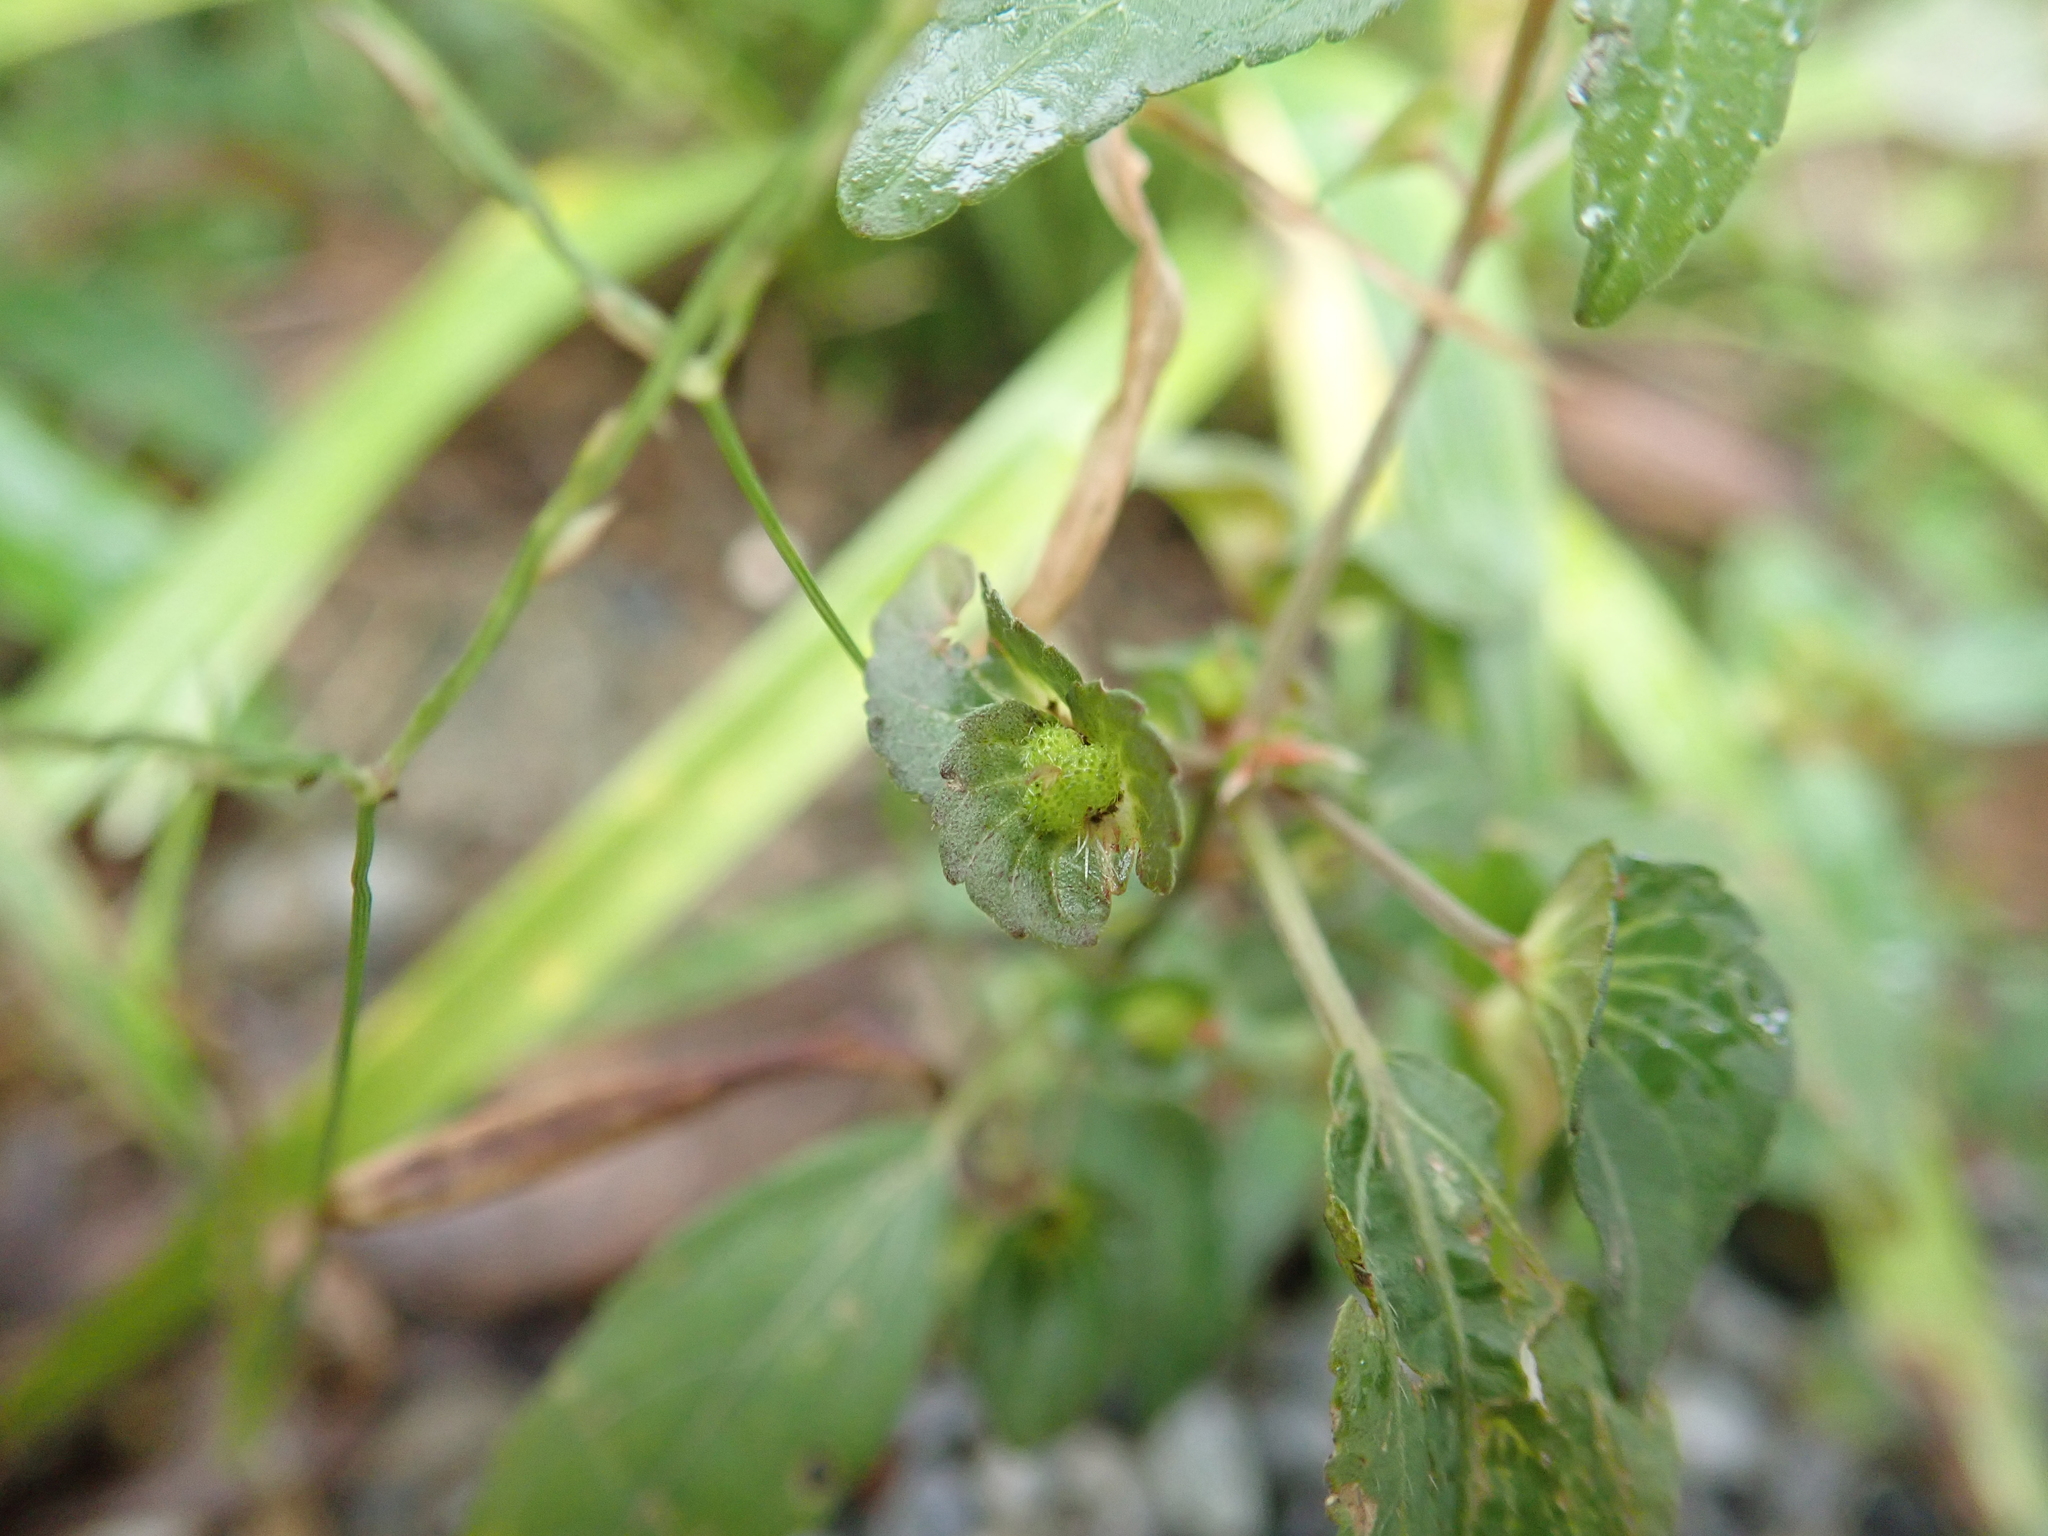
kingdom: Plantae
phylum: Tracheophyta
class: Magnoliopsida
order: Malpighiales
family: Euphorbiaceae
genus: Acalypha
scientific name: Acalypha australis
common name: Asian copperleaf
